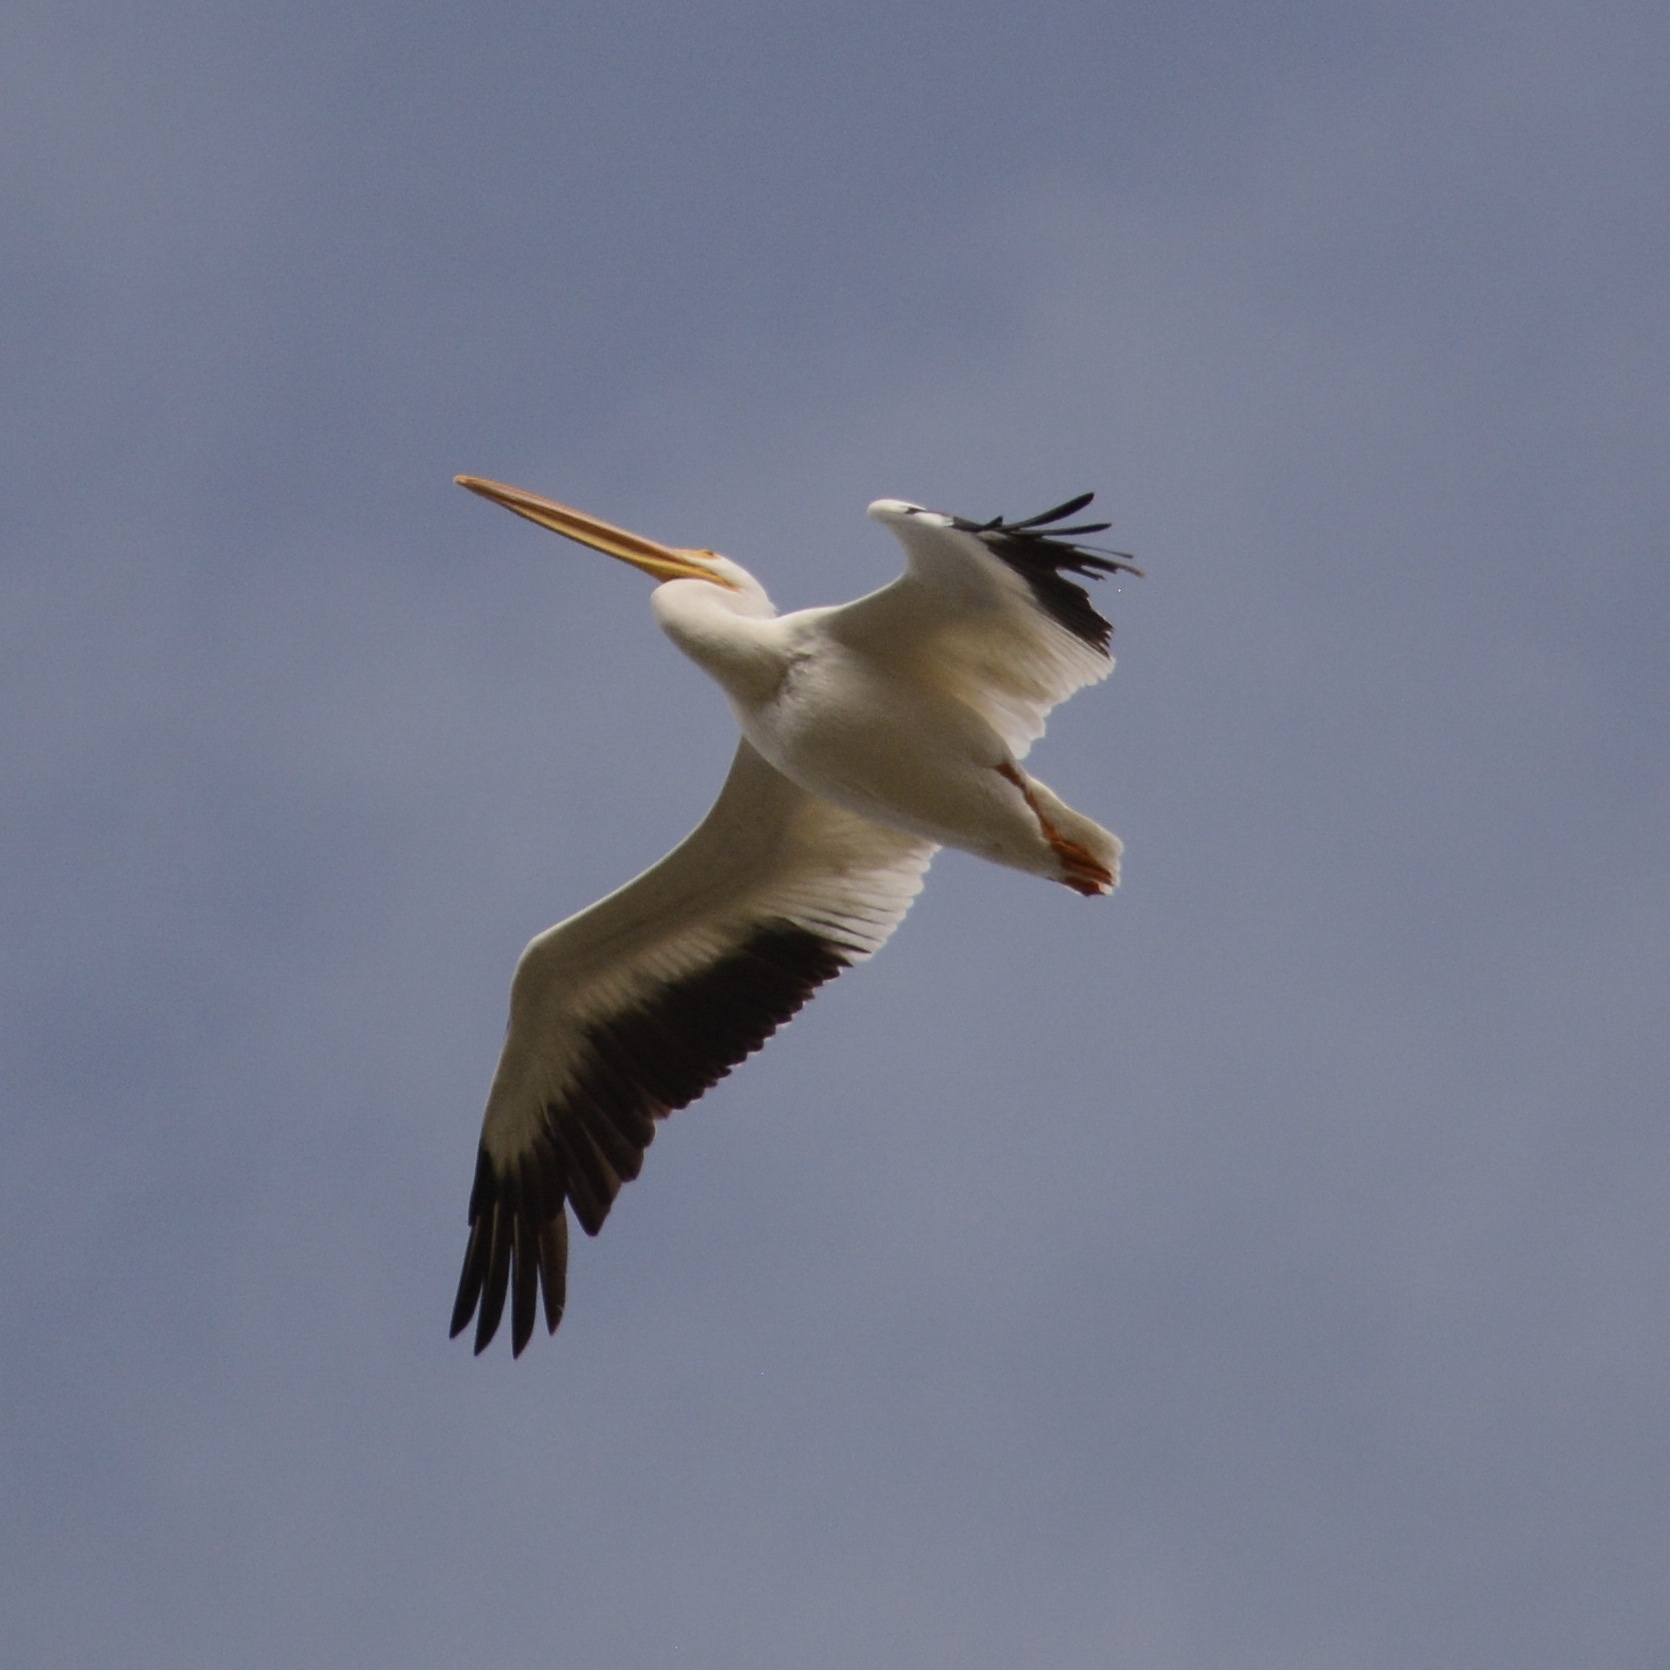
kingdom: Animalia
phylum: Chordata
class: Aves
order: Pelecaniformes
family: Pelecanidae
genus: Pelecanus
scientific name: Pelecanus erythrorhynchos
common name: American white pelican
